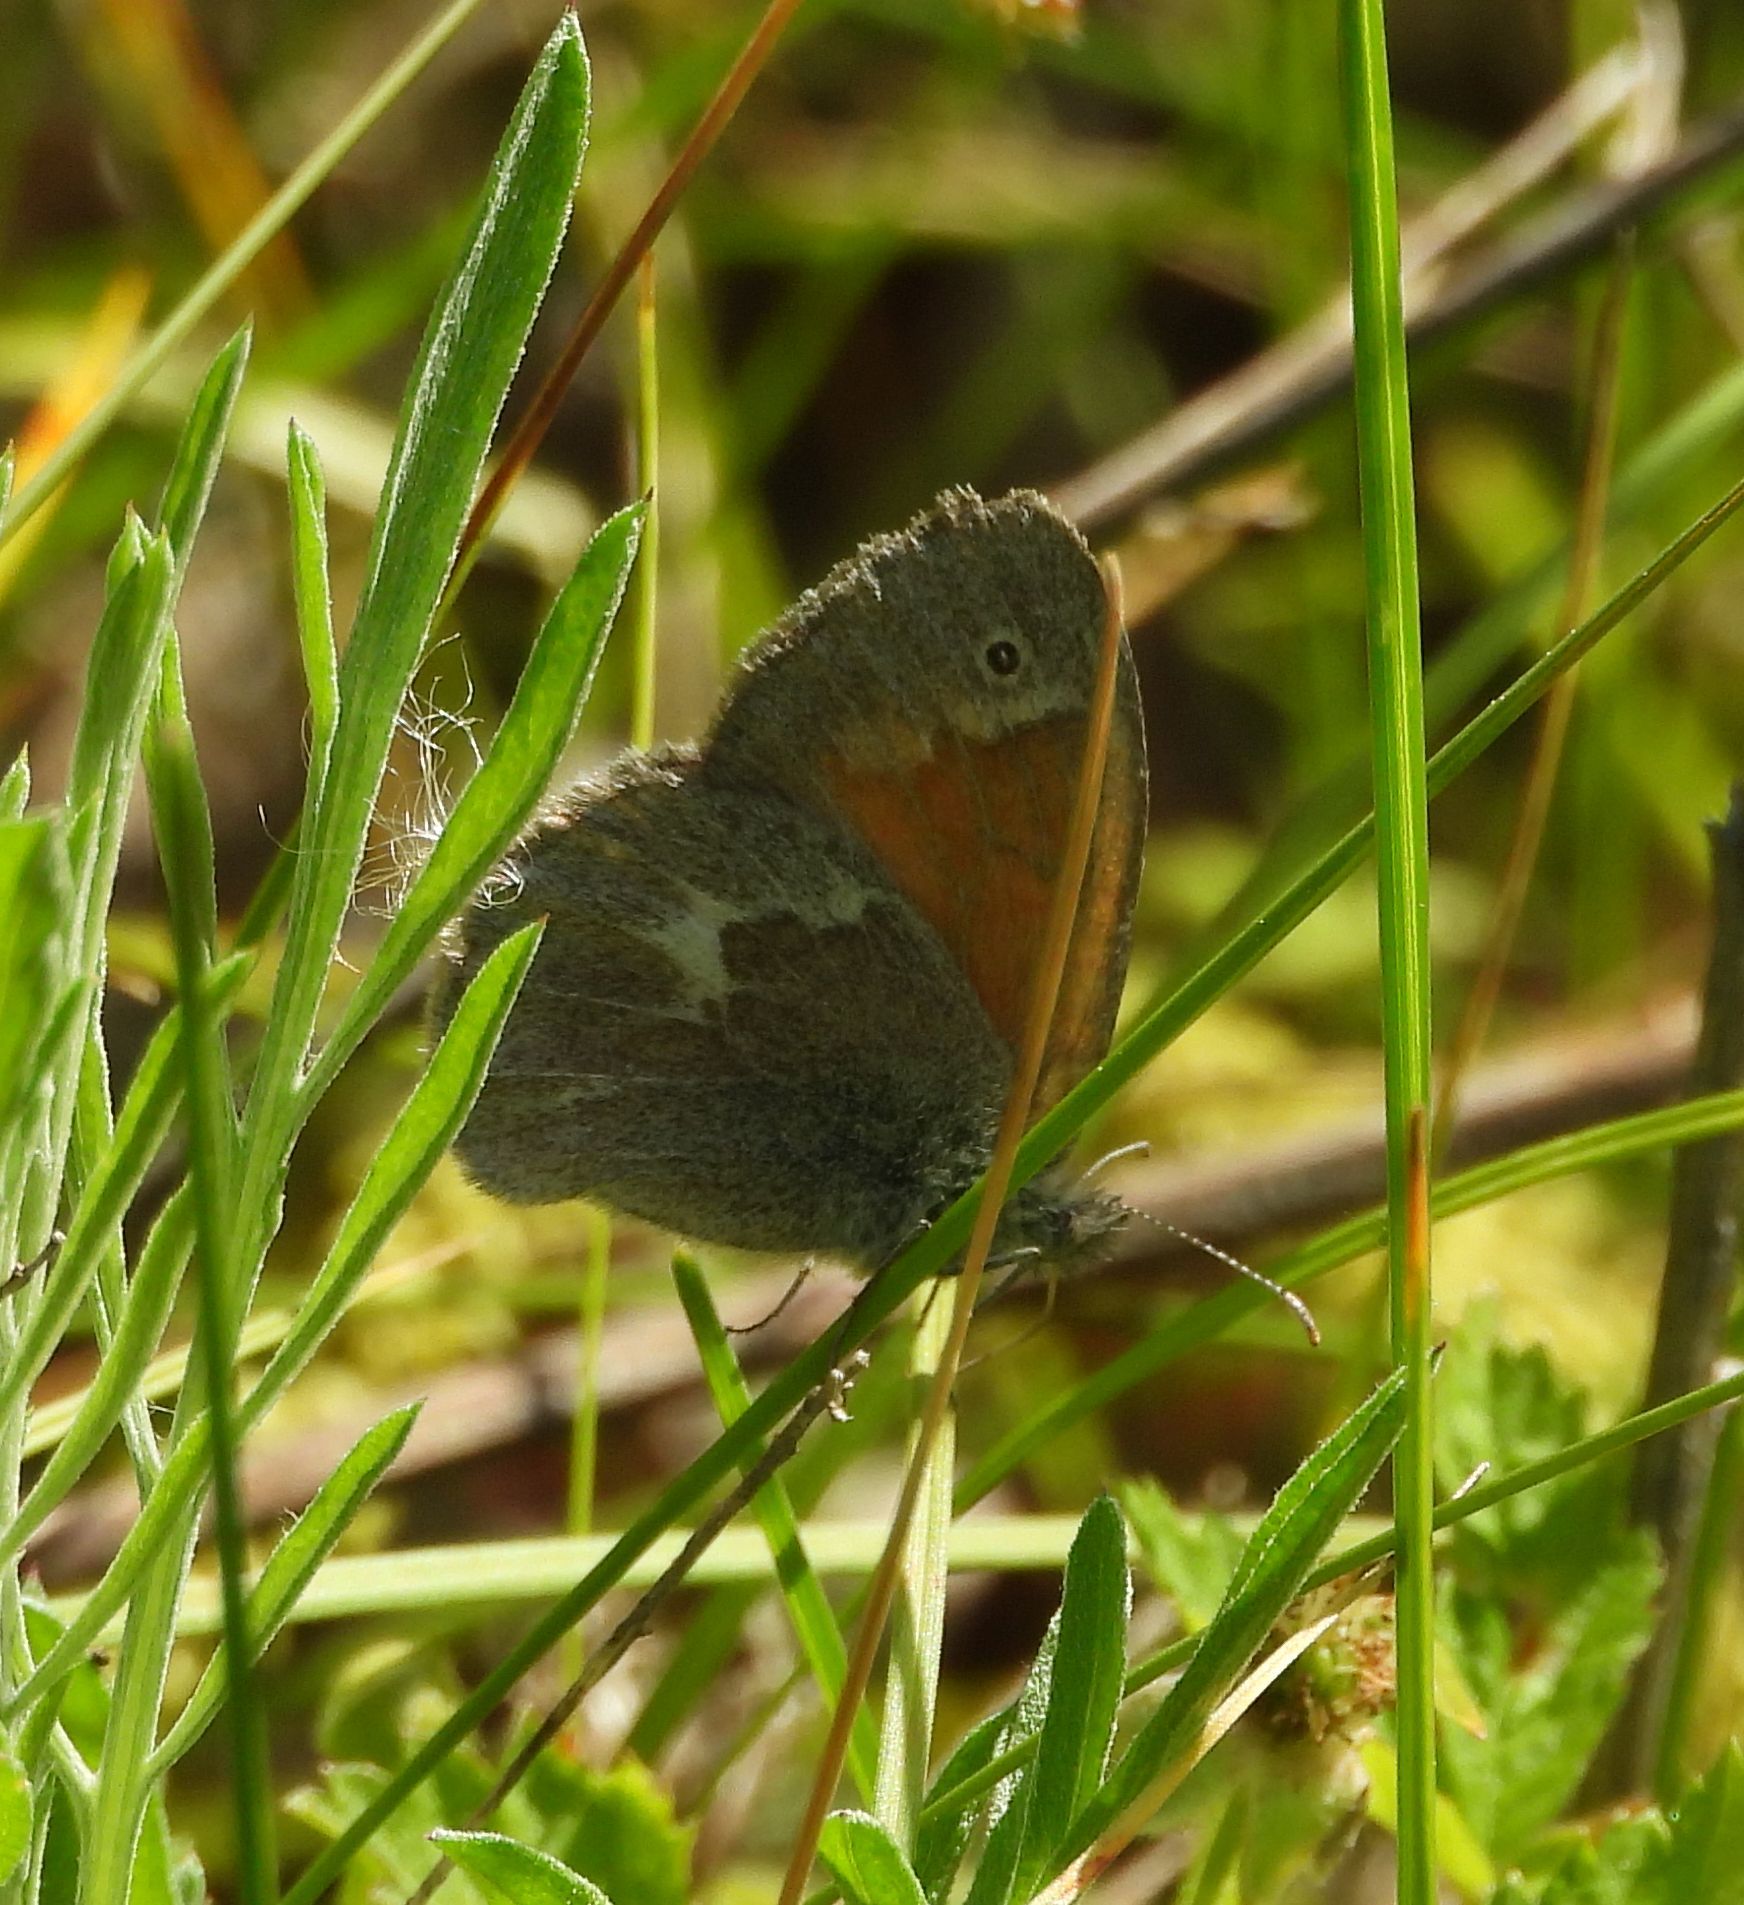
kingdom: Animalia
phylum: Arthropoda
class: Insecta
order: Lepidoptera
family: Nymphalidae
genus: Coenonympha
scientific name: Coenonympha california
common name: Common ringlet
